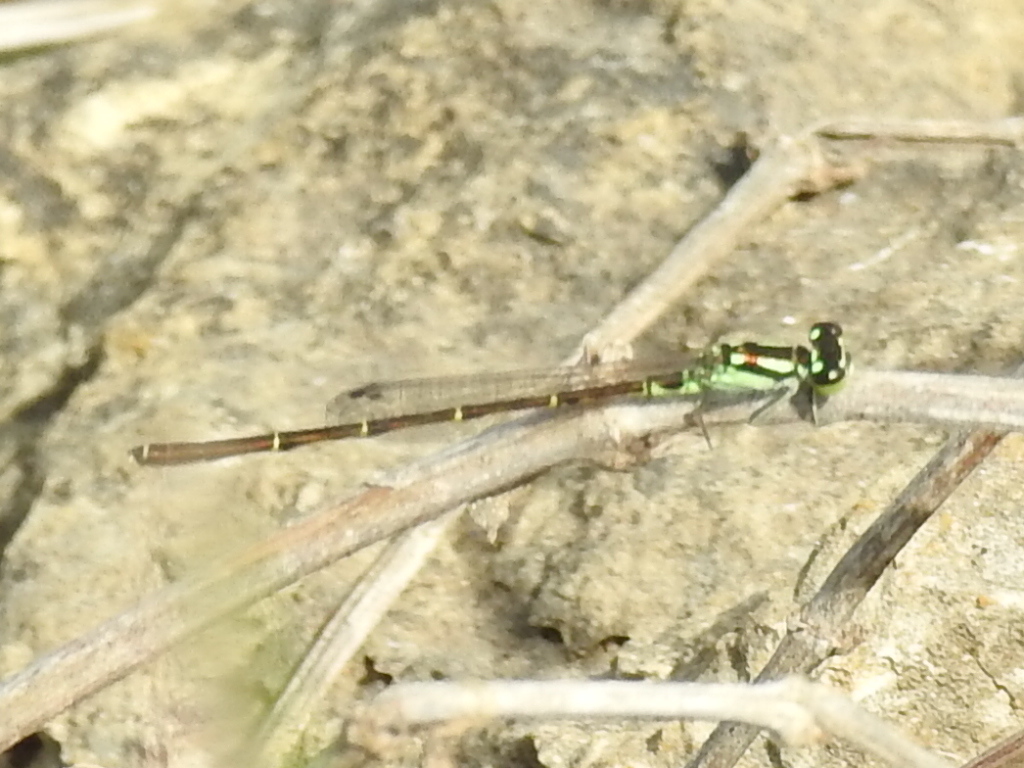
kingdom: Animalia
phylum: Arthropoda
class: Insecta
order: Odonata
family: Coenagrionidae
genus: Ischnura
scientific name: Ischnura posita
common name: Fragile forktail
